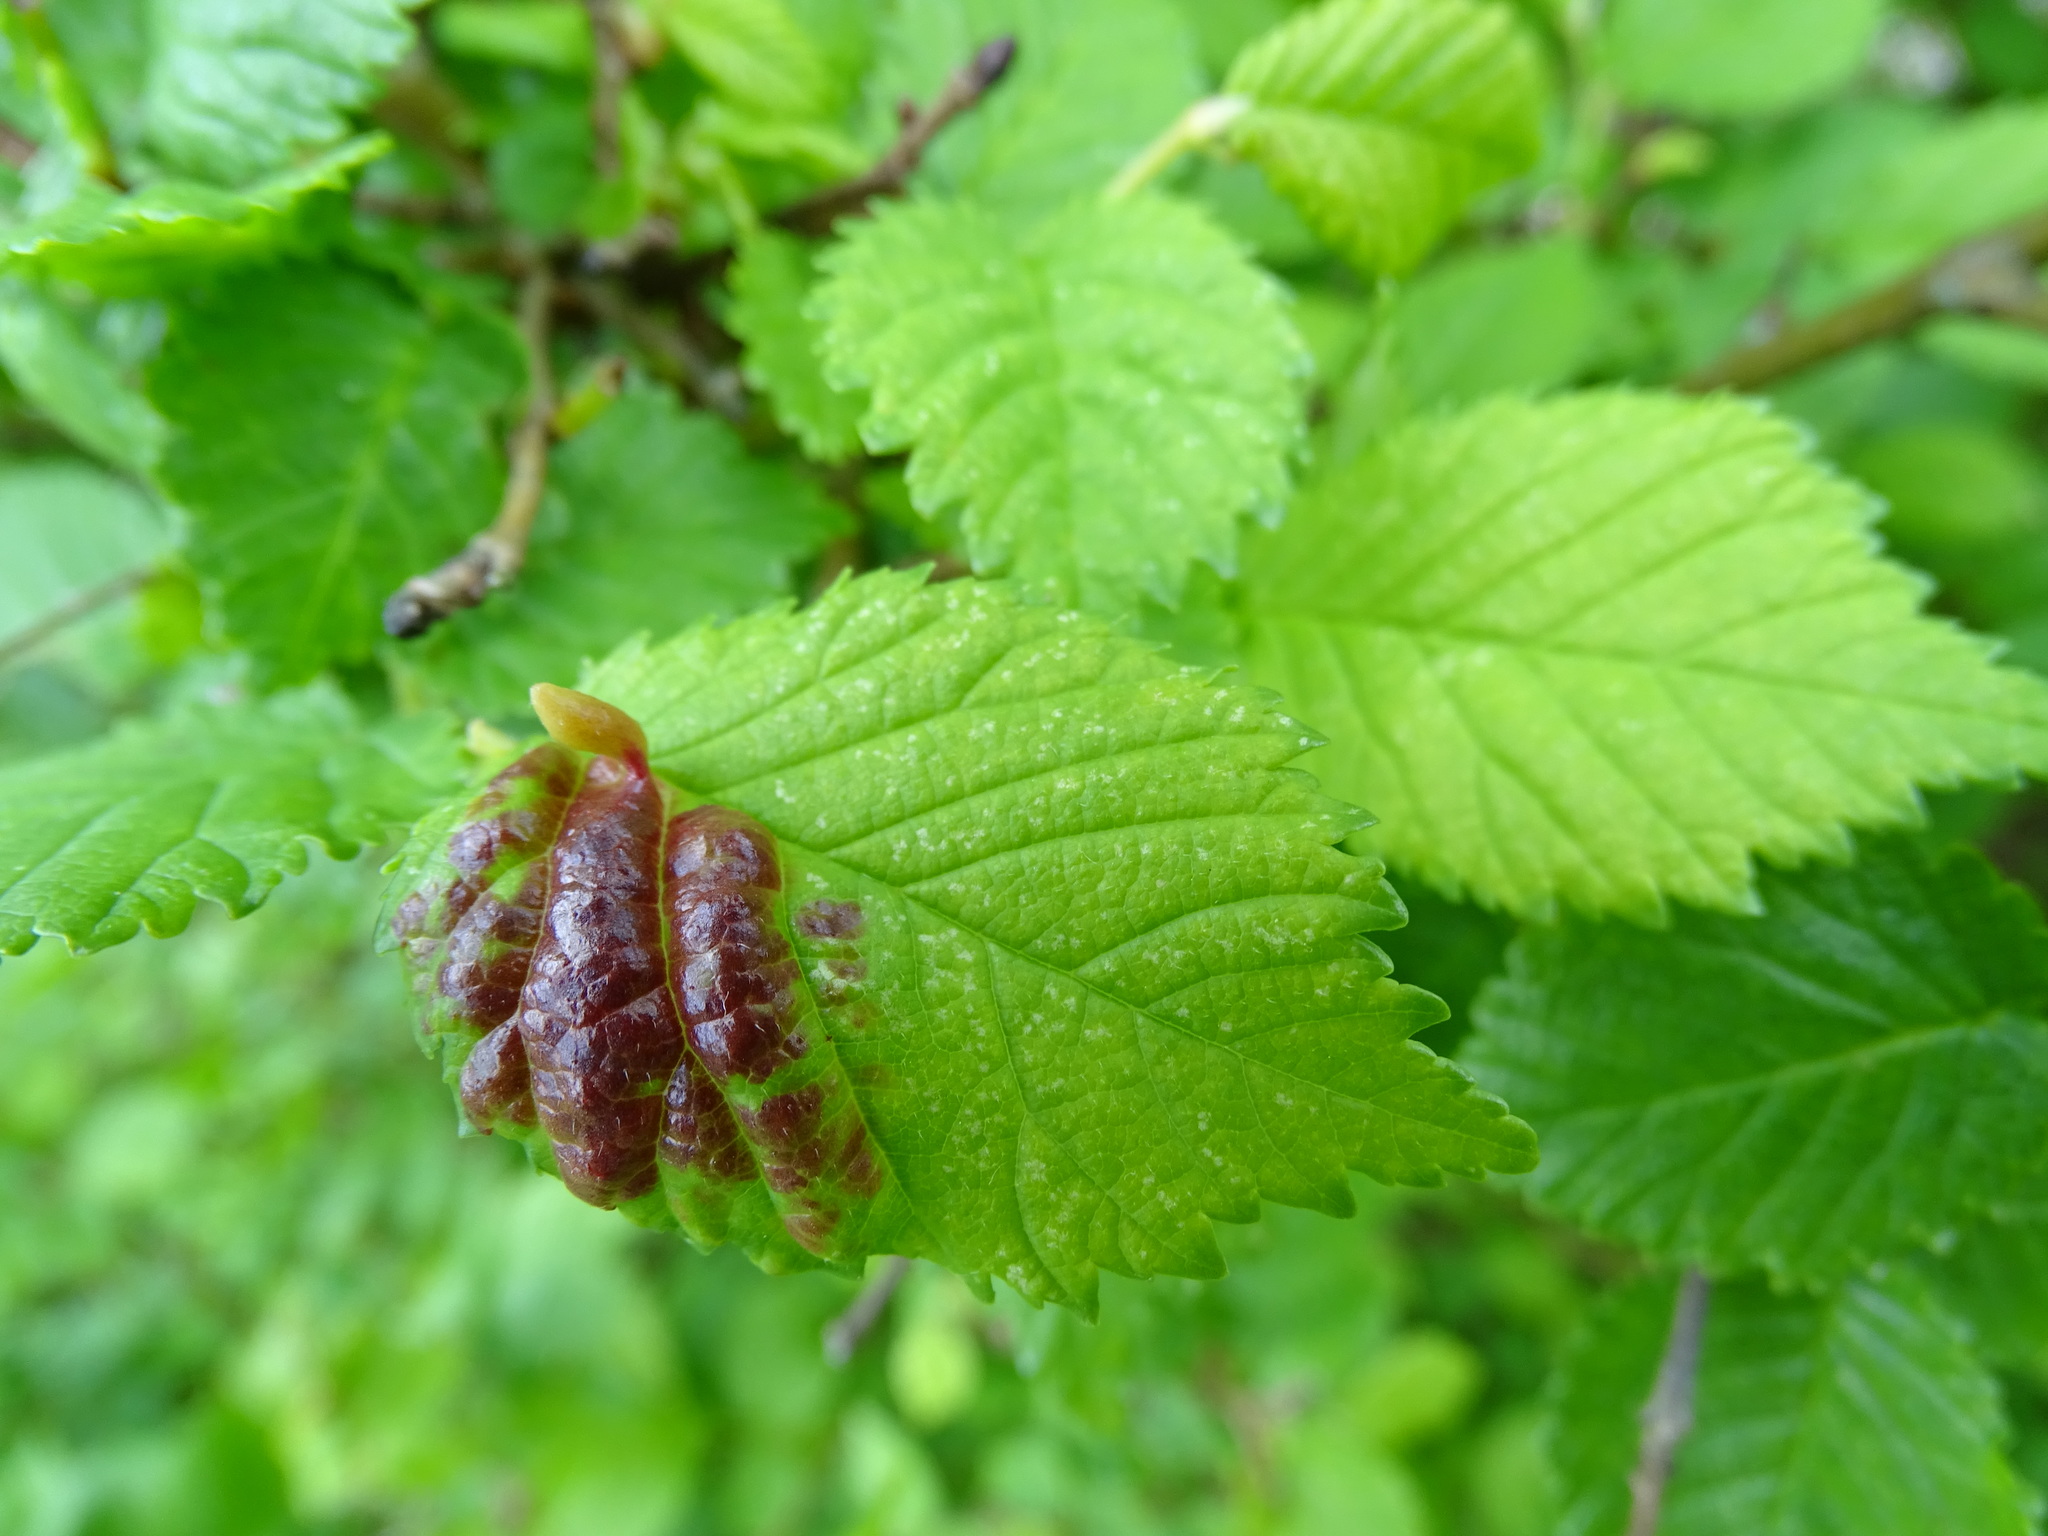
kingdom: Animalia
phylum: Arthropoda
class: Insecta
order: Hemiptera
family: Aphididae
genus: Tetraneura
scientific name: Tetraneura ulmi
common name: Aphid
